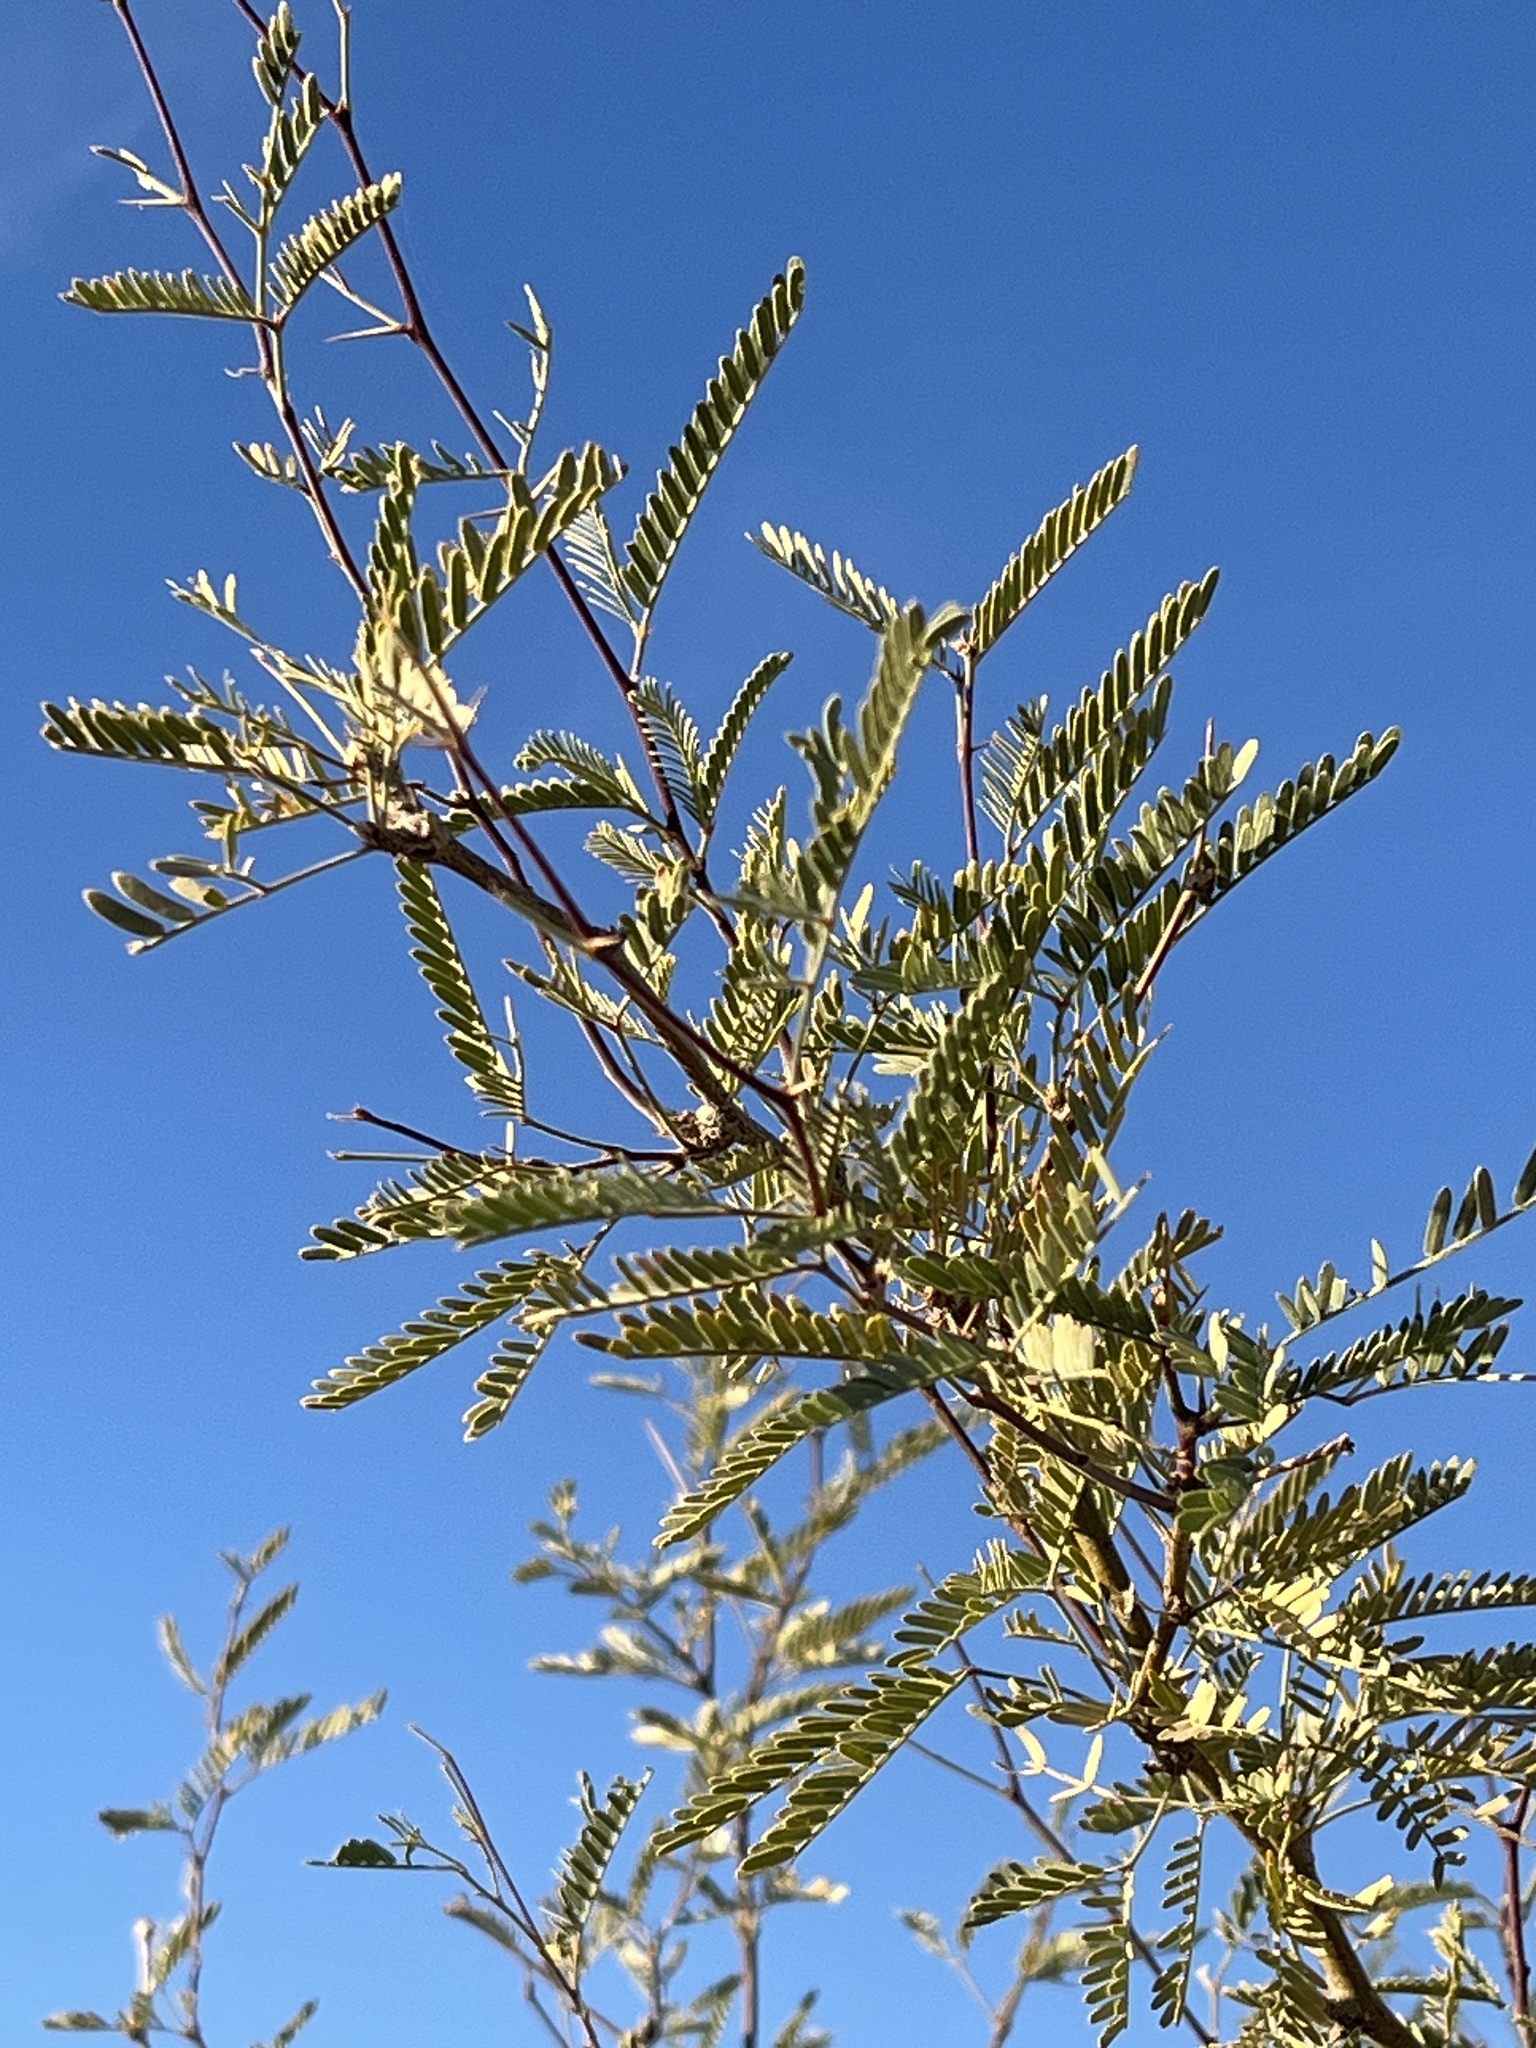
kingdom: Plantae
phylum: Tracheophyta
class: Magnoliopsida
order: Fabales
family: Fabaceae
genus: Prosopis
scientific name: Prosopis velutina
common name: Velvet mesquite
